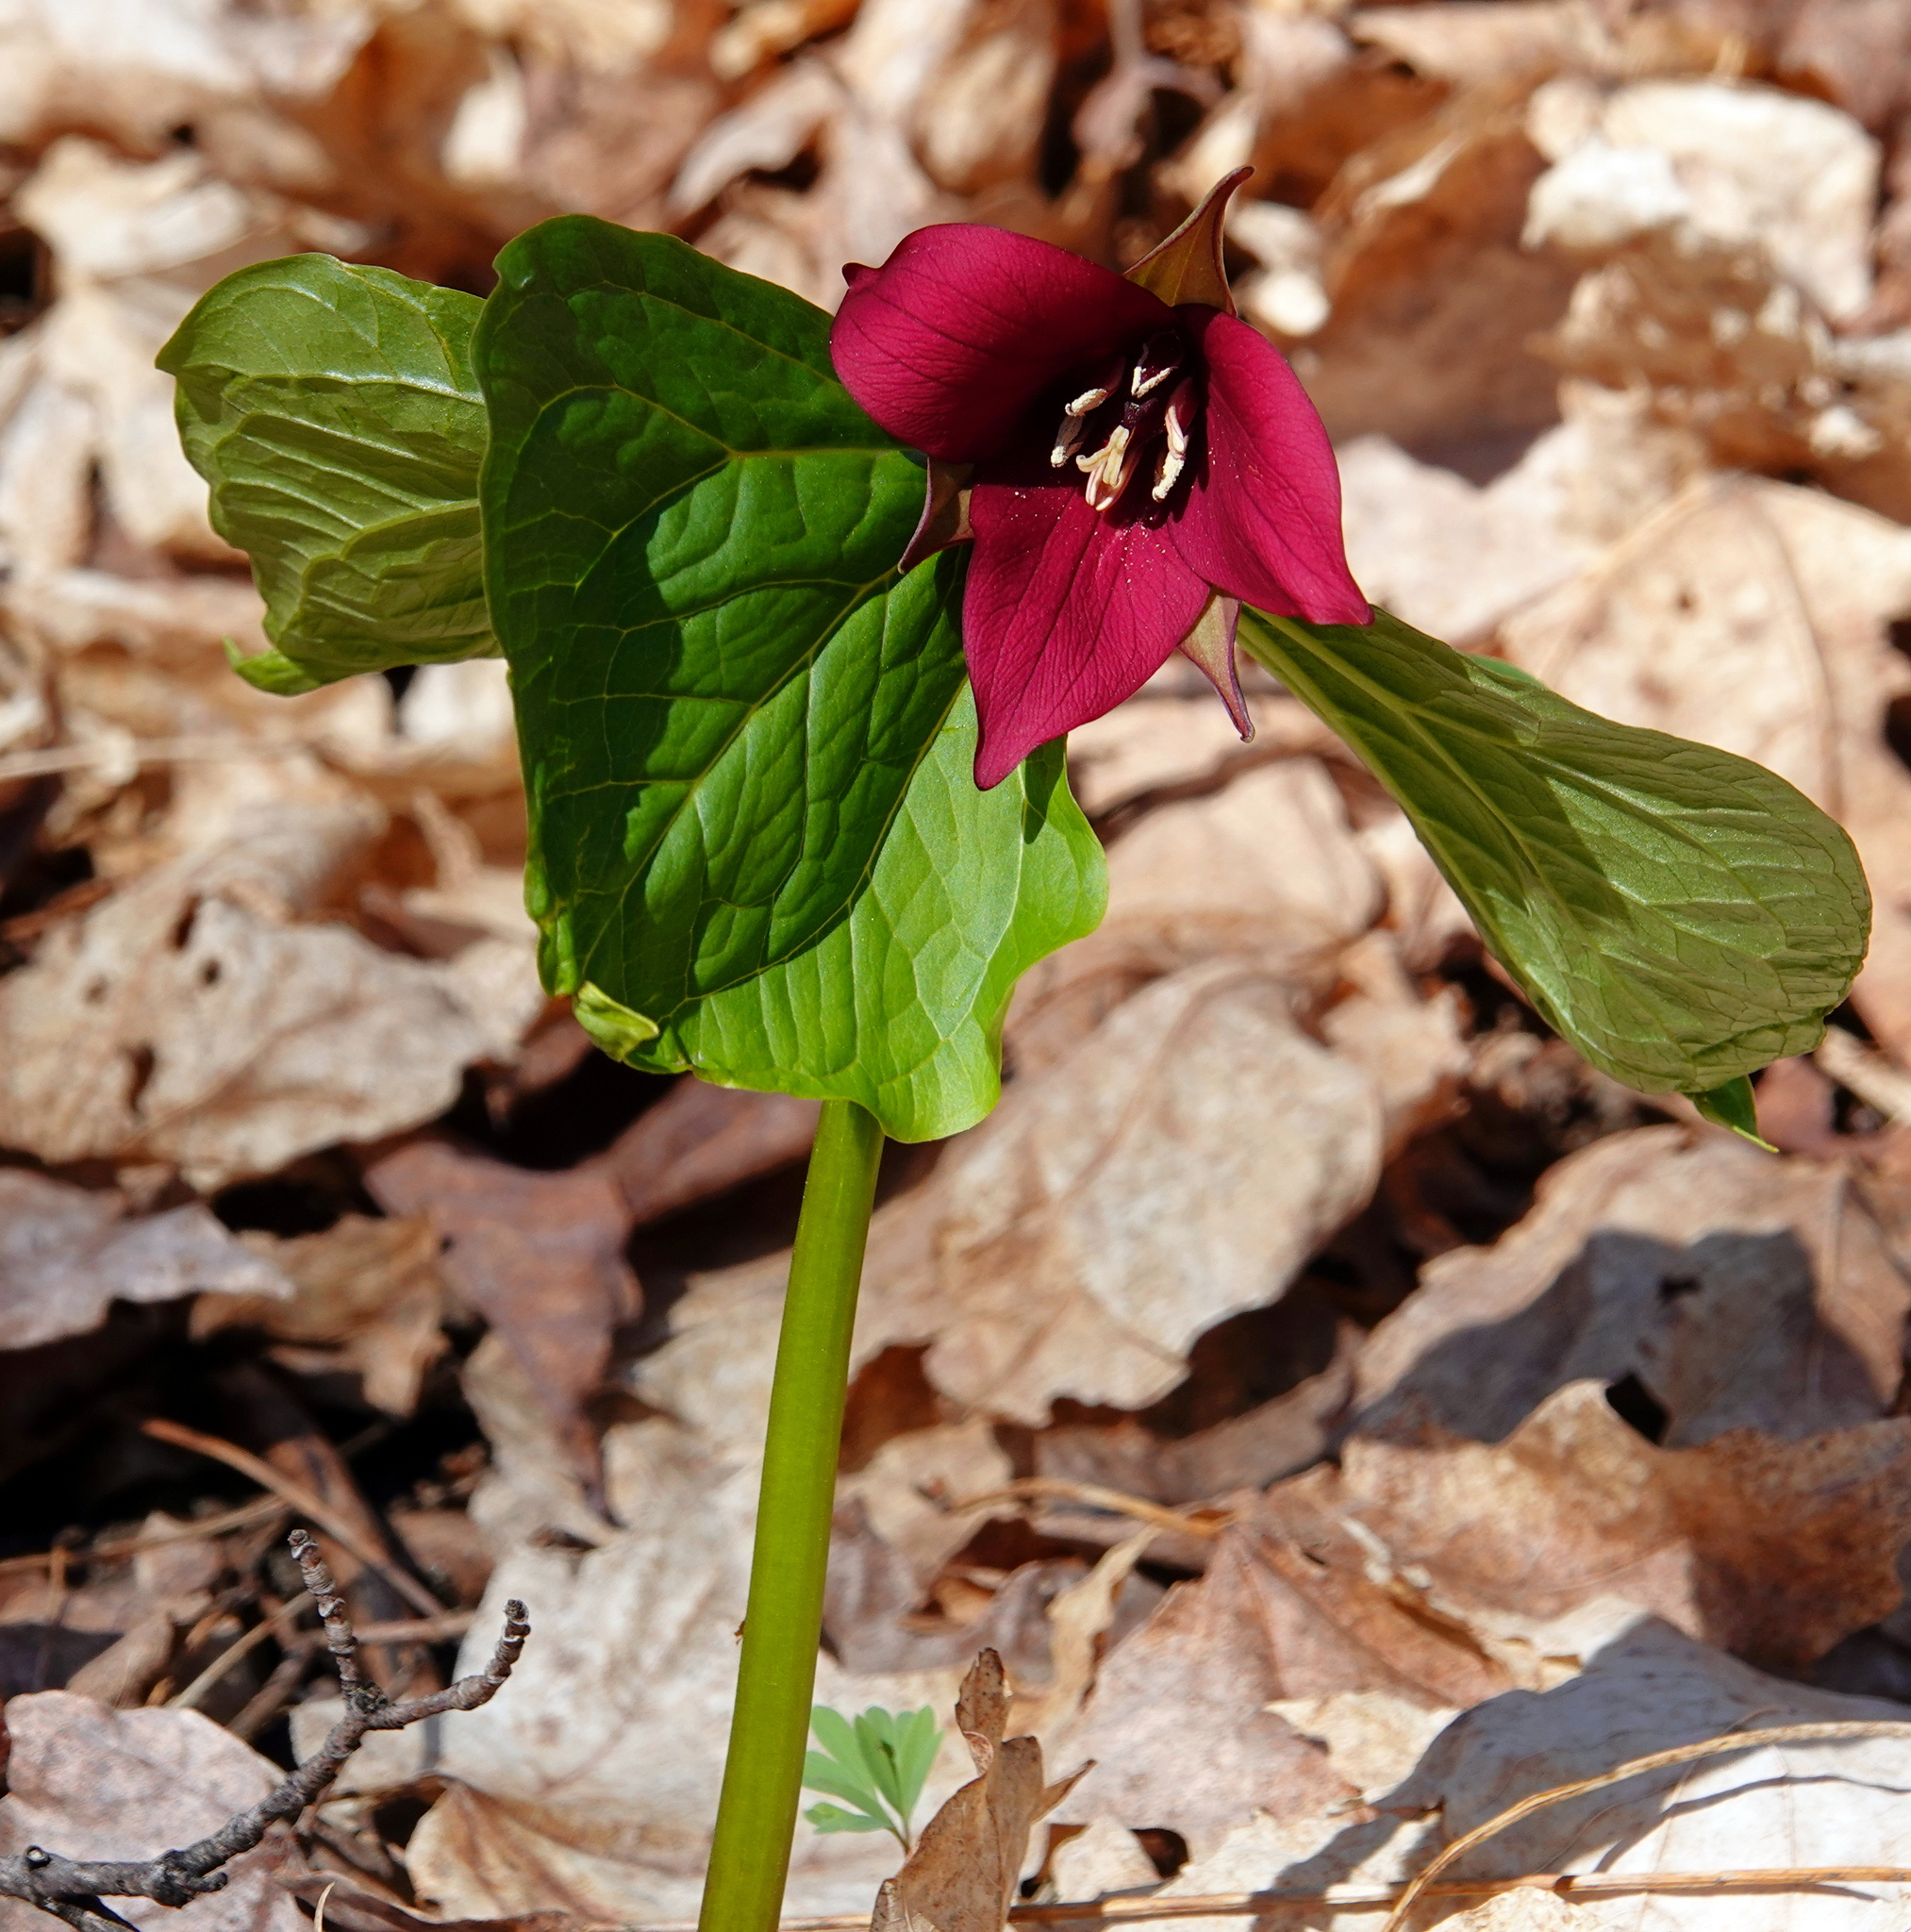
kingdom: Plantae
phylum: Tracheophyta
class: Liliopsida
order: Liliales
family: Melanthiaceae
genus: Trillium
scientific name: Trillium erectum
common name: Purple trillium
